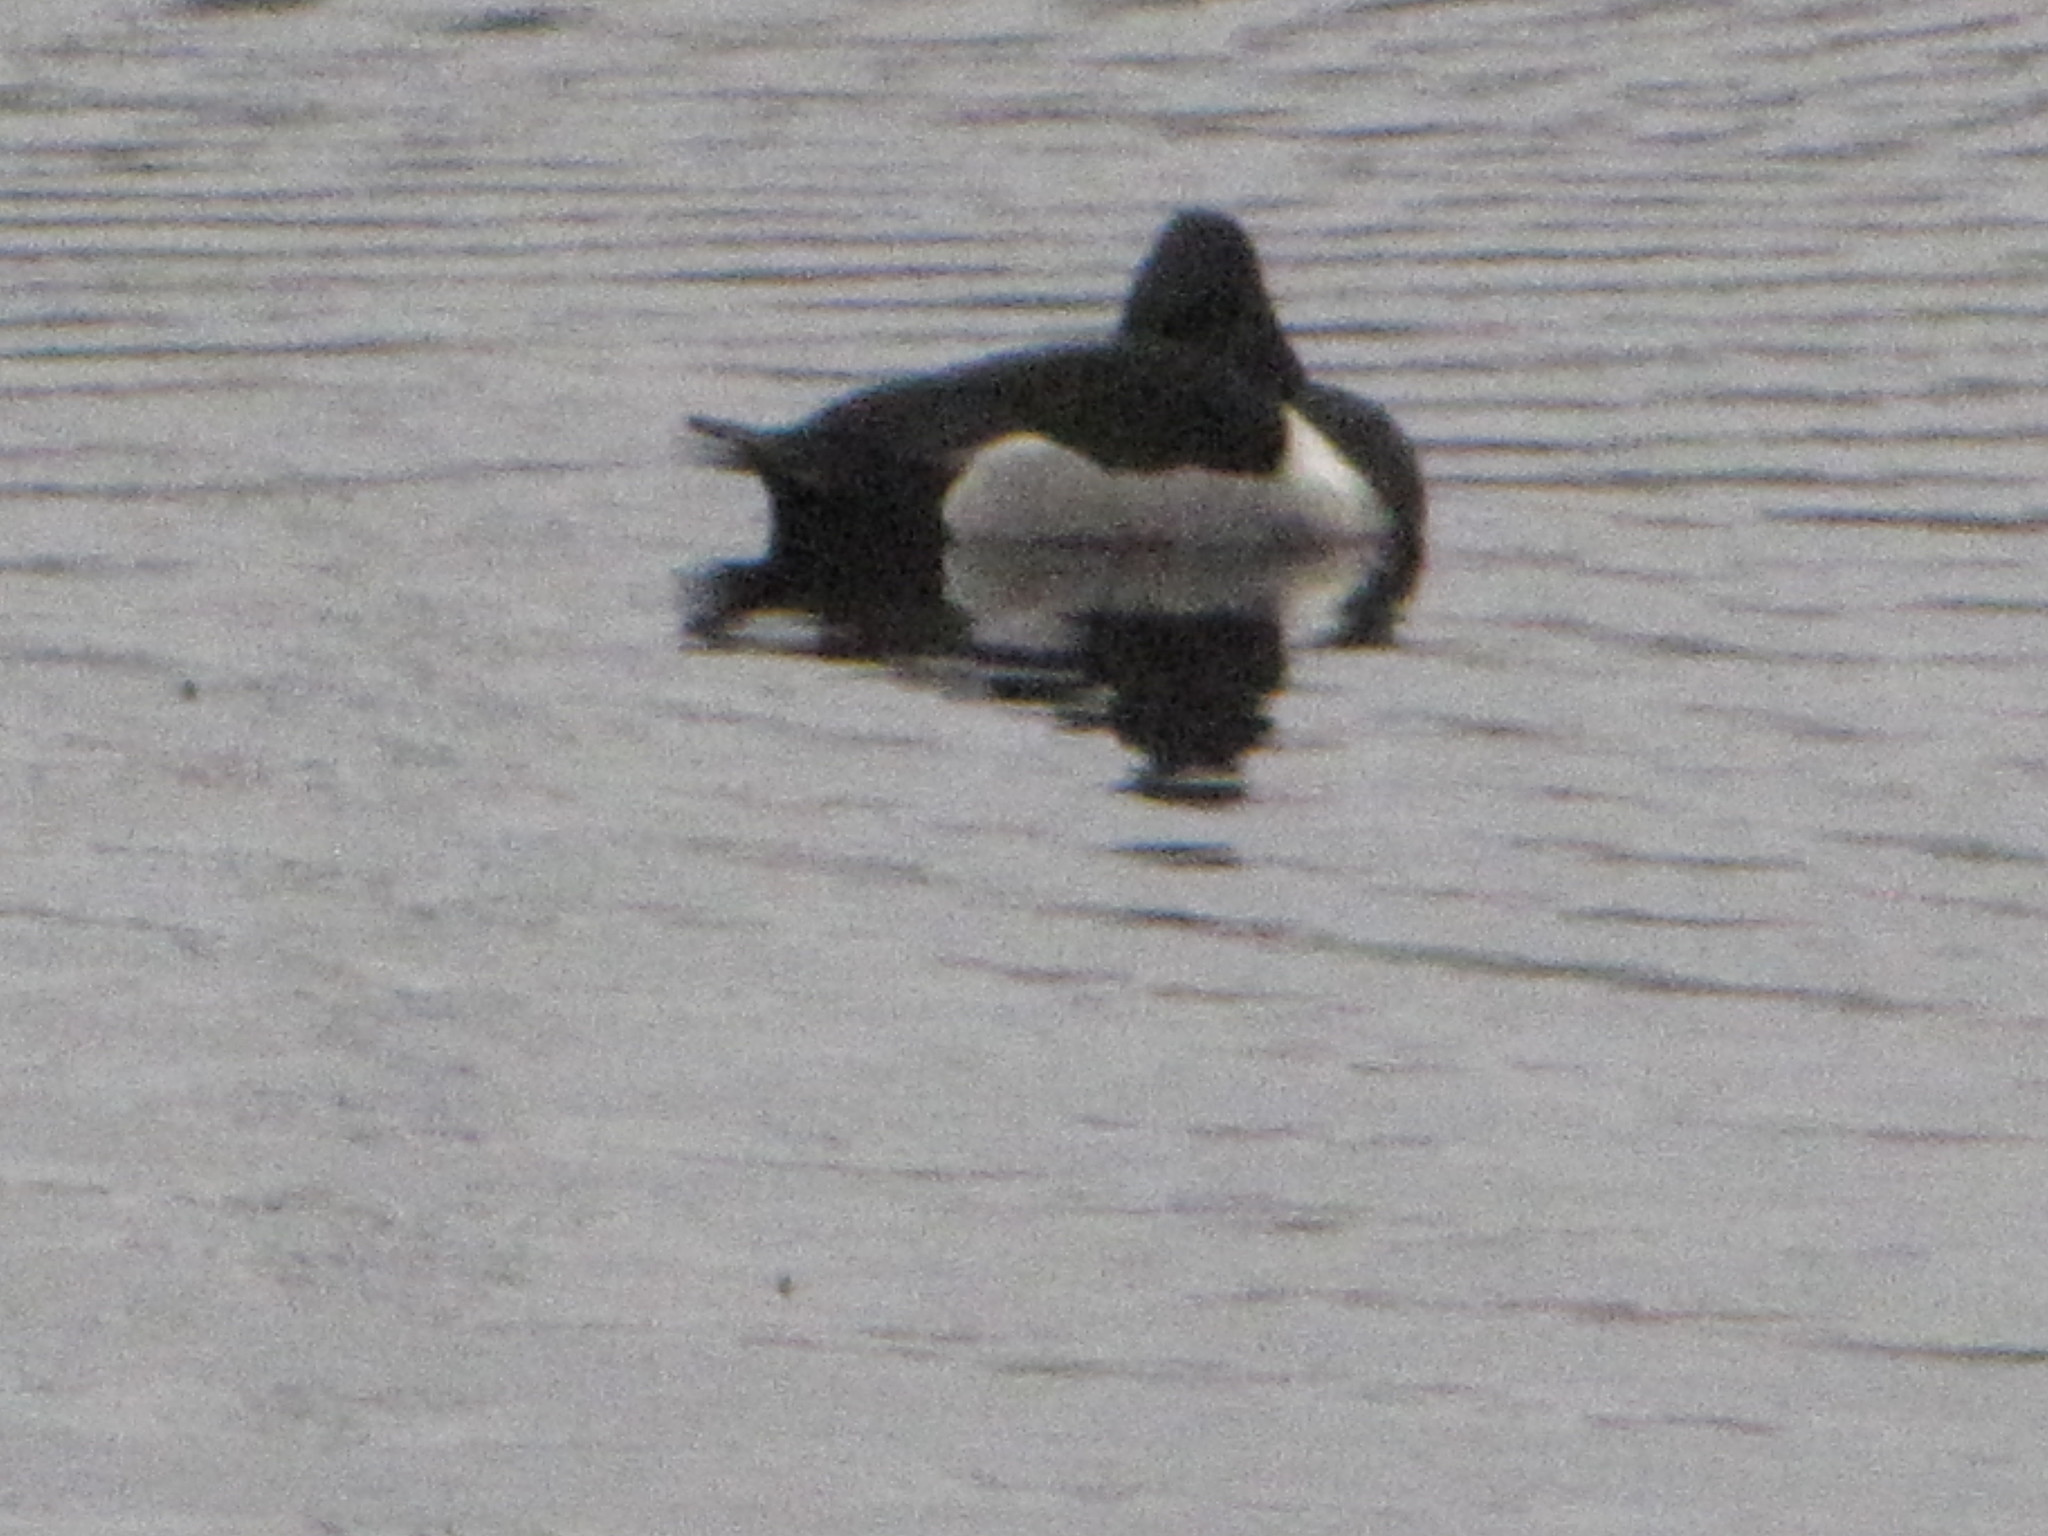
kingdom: Animalia
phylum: Chordata
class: Aves
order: Anseriformes
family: Anatidae
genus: Aythya
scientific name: Aythya collaris
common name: Ring-necked duck
